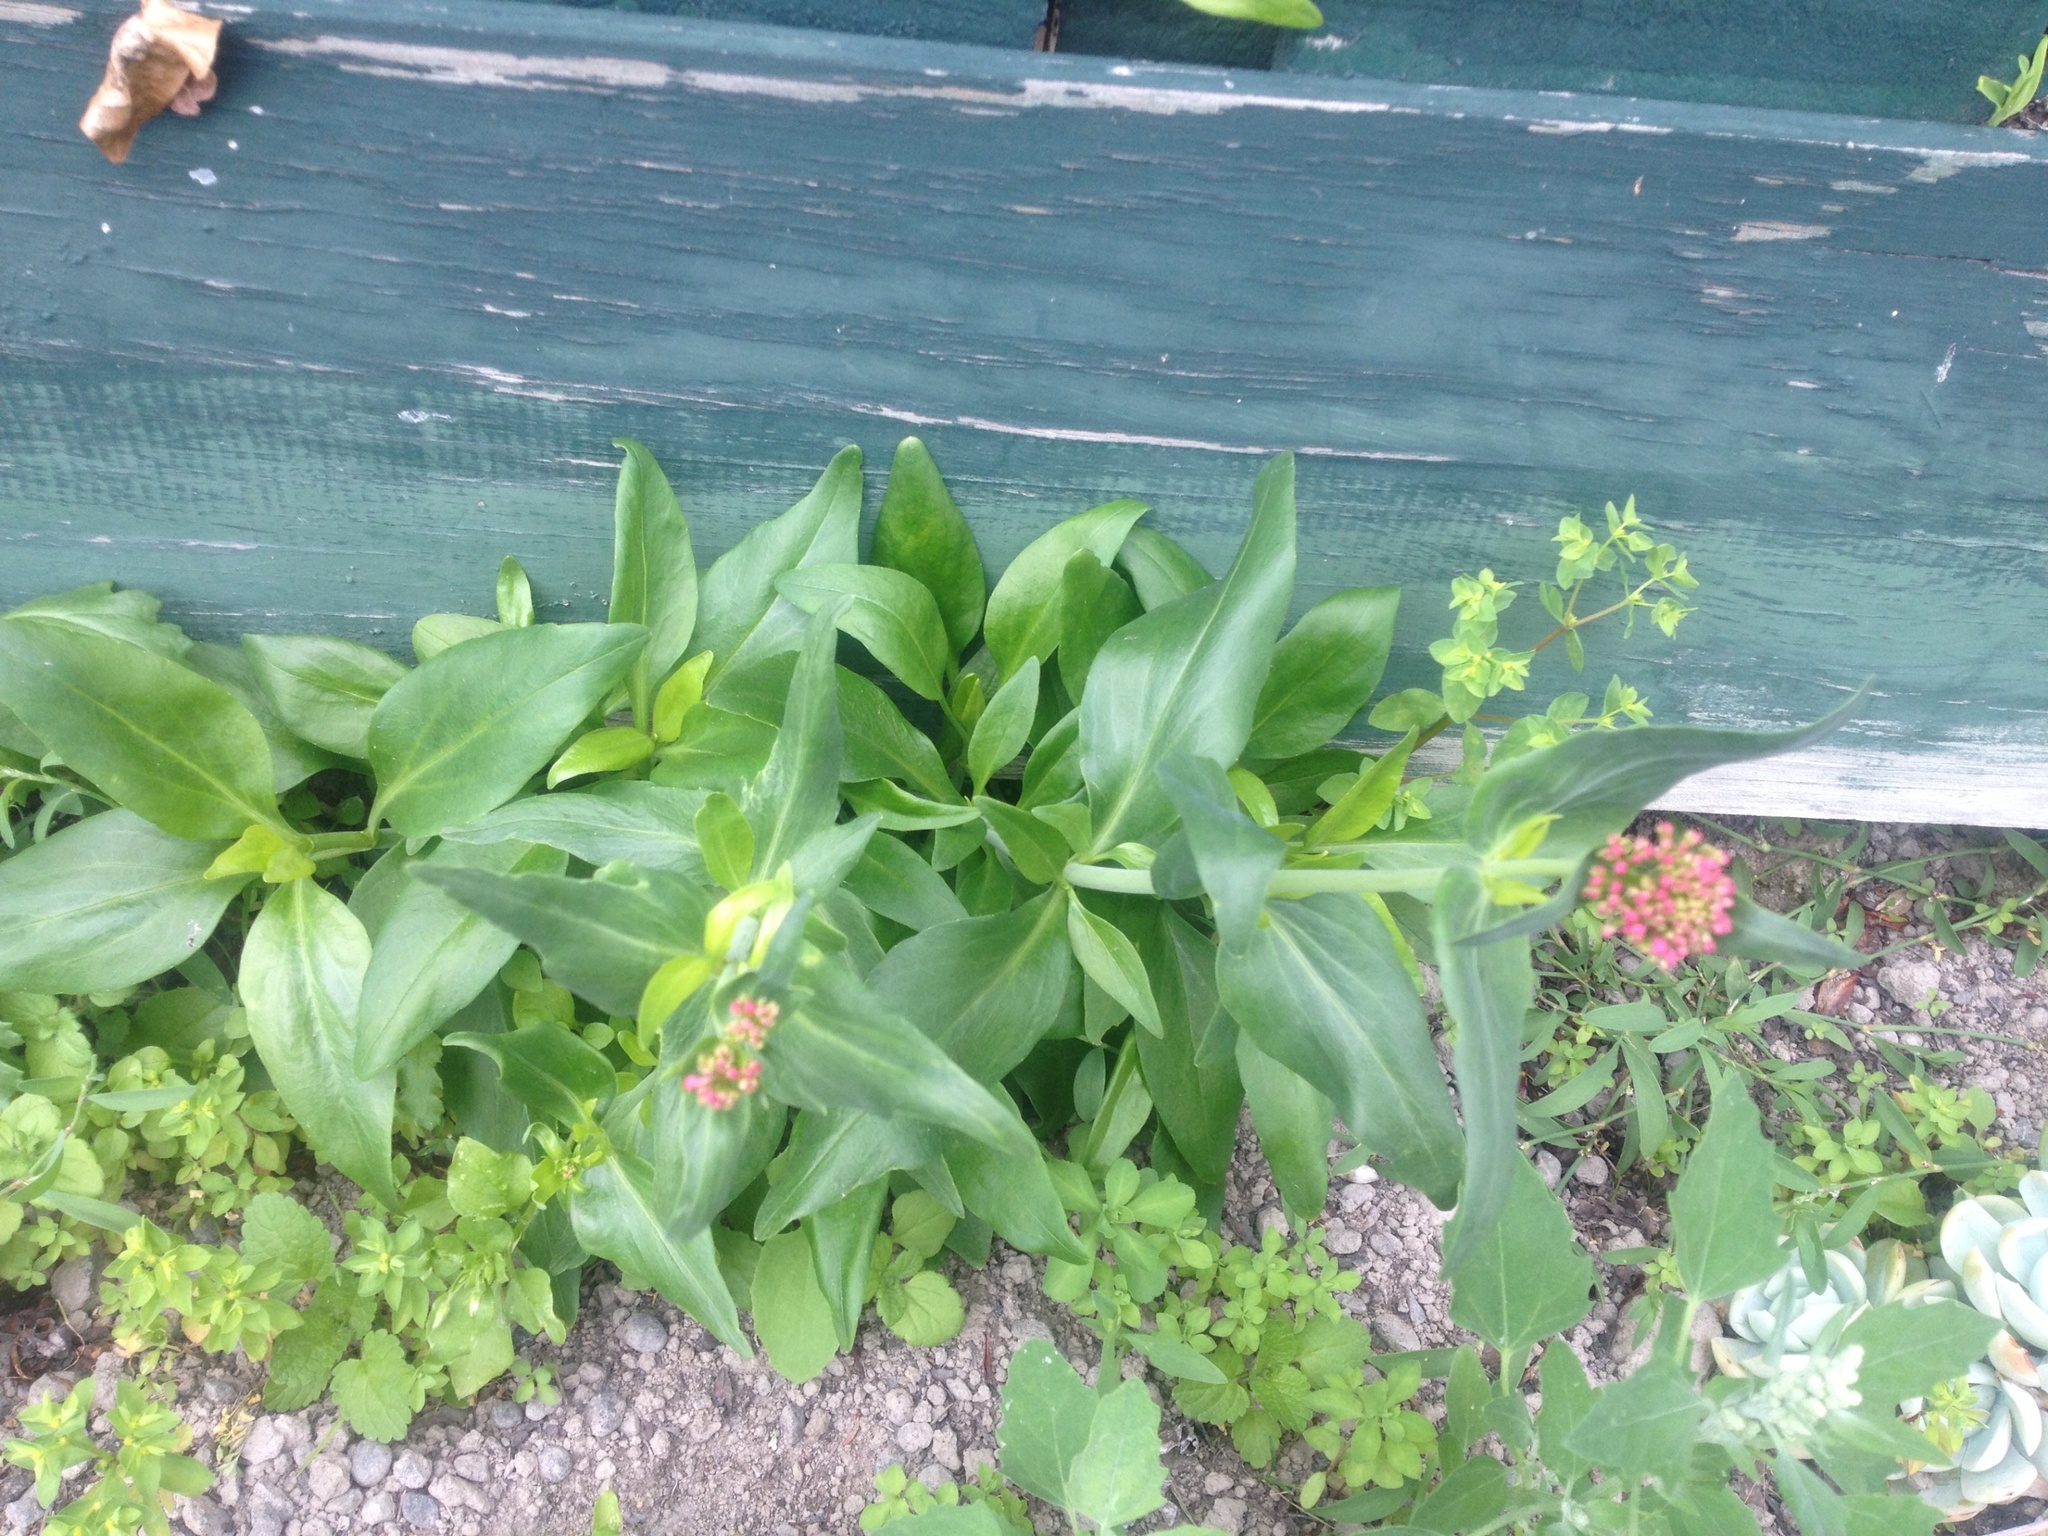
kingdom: Plantae
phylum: Tracheophyta
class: Magnoliopsida
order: Dipsacales
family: Caprifoliaceae
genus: Centranthus
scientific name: Centranthus ruber
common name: Red valerian
